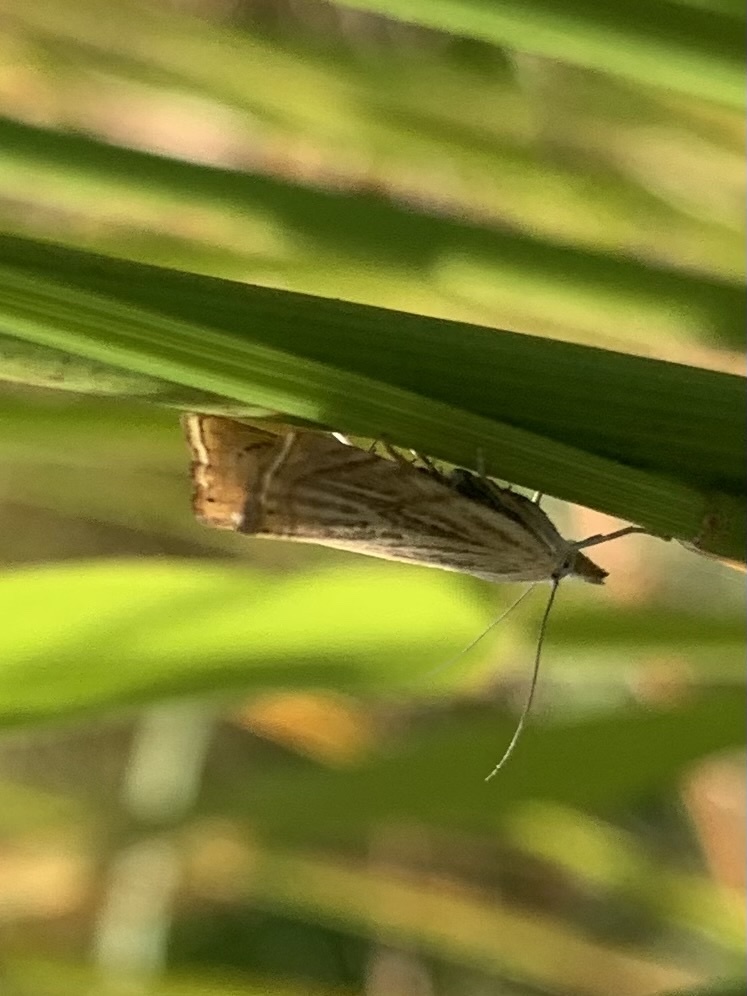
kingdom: Animalia
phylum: Arthropoda
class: Insecta
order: Lepidoptera
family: Crambidae
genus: Chrysoteuchia
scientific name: Chrysoteuchia culmella
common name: Garden grass-veneer
